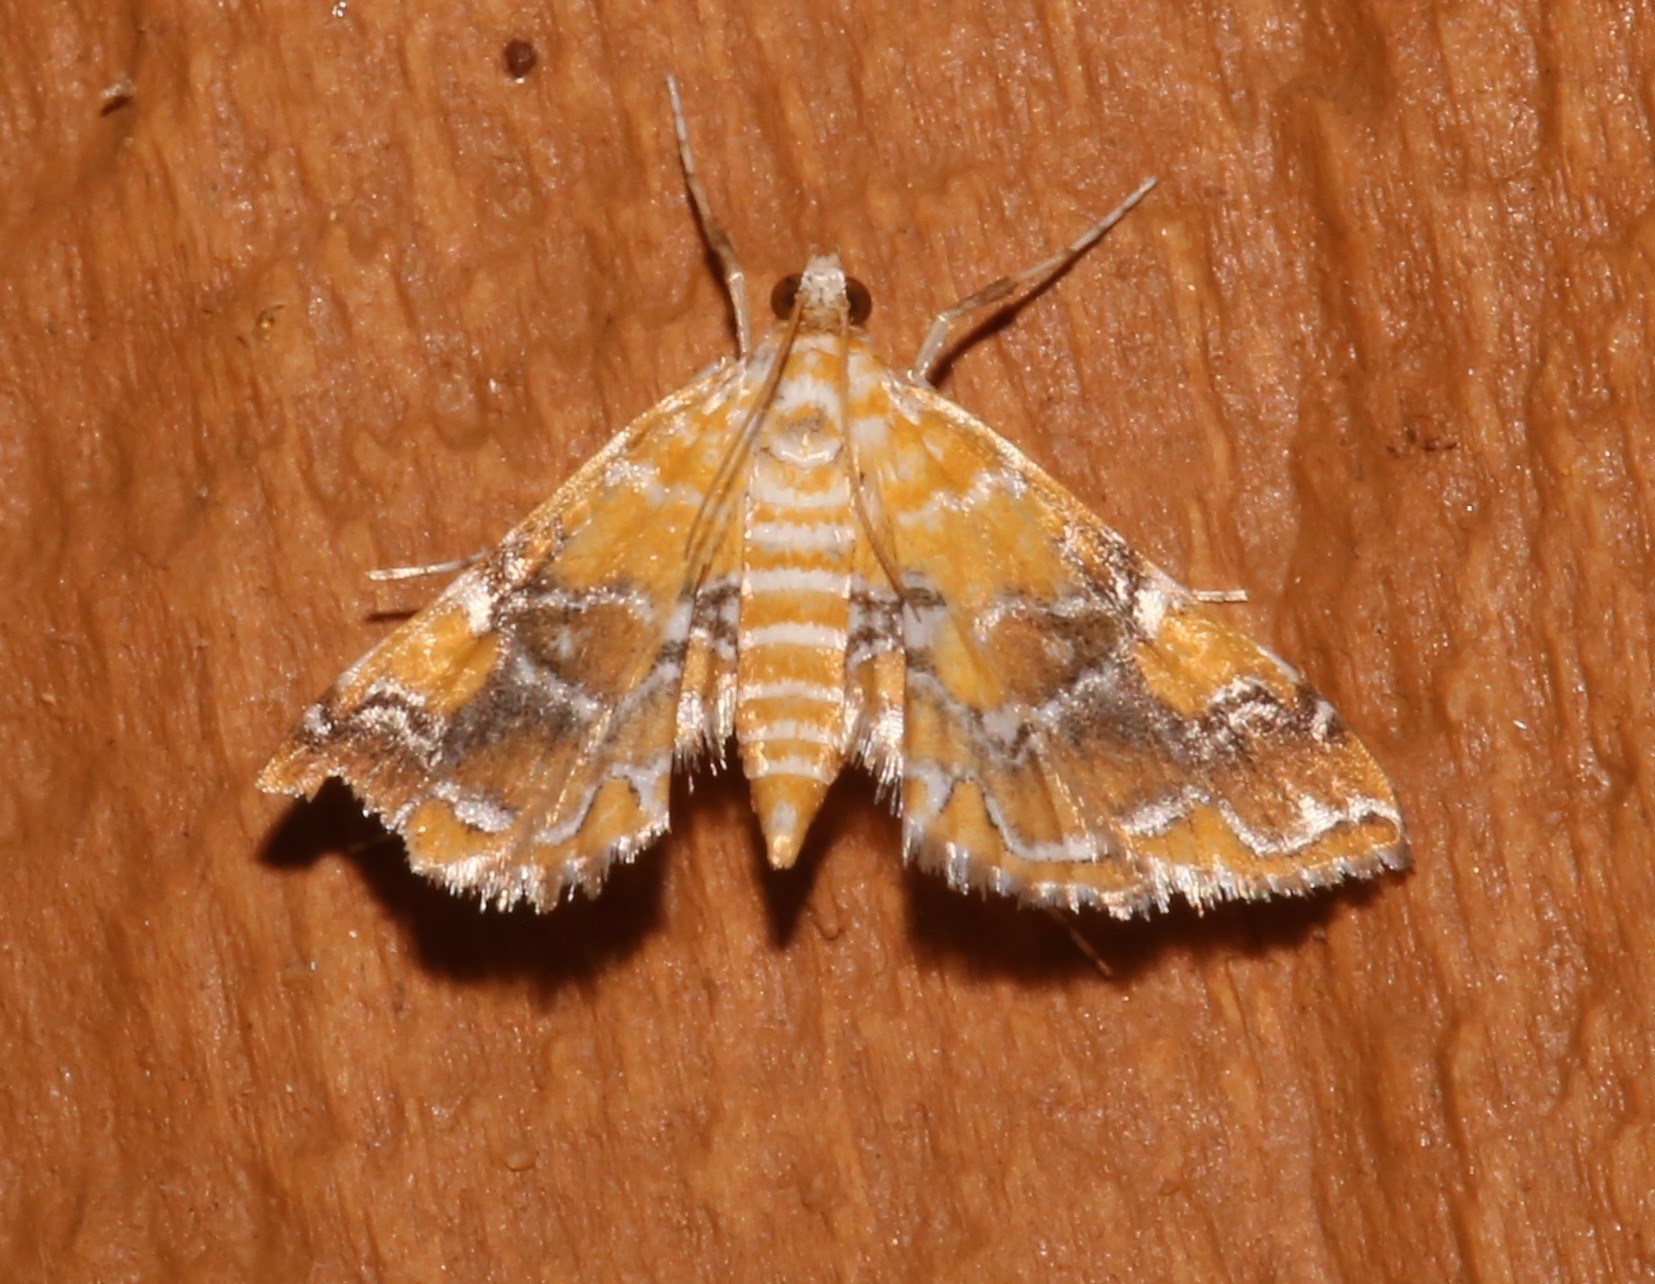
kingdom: Animalia
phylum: Arthropoda
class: Insecta
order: Lepidoptera
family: Crambidae
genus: Elophila
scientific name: Elophila nebulosalis
